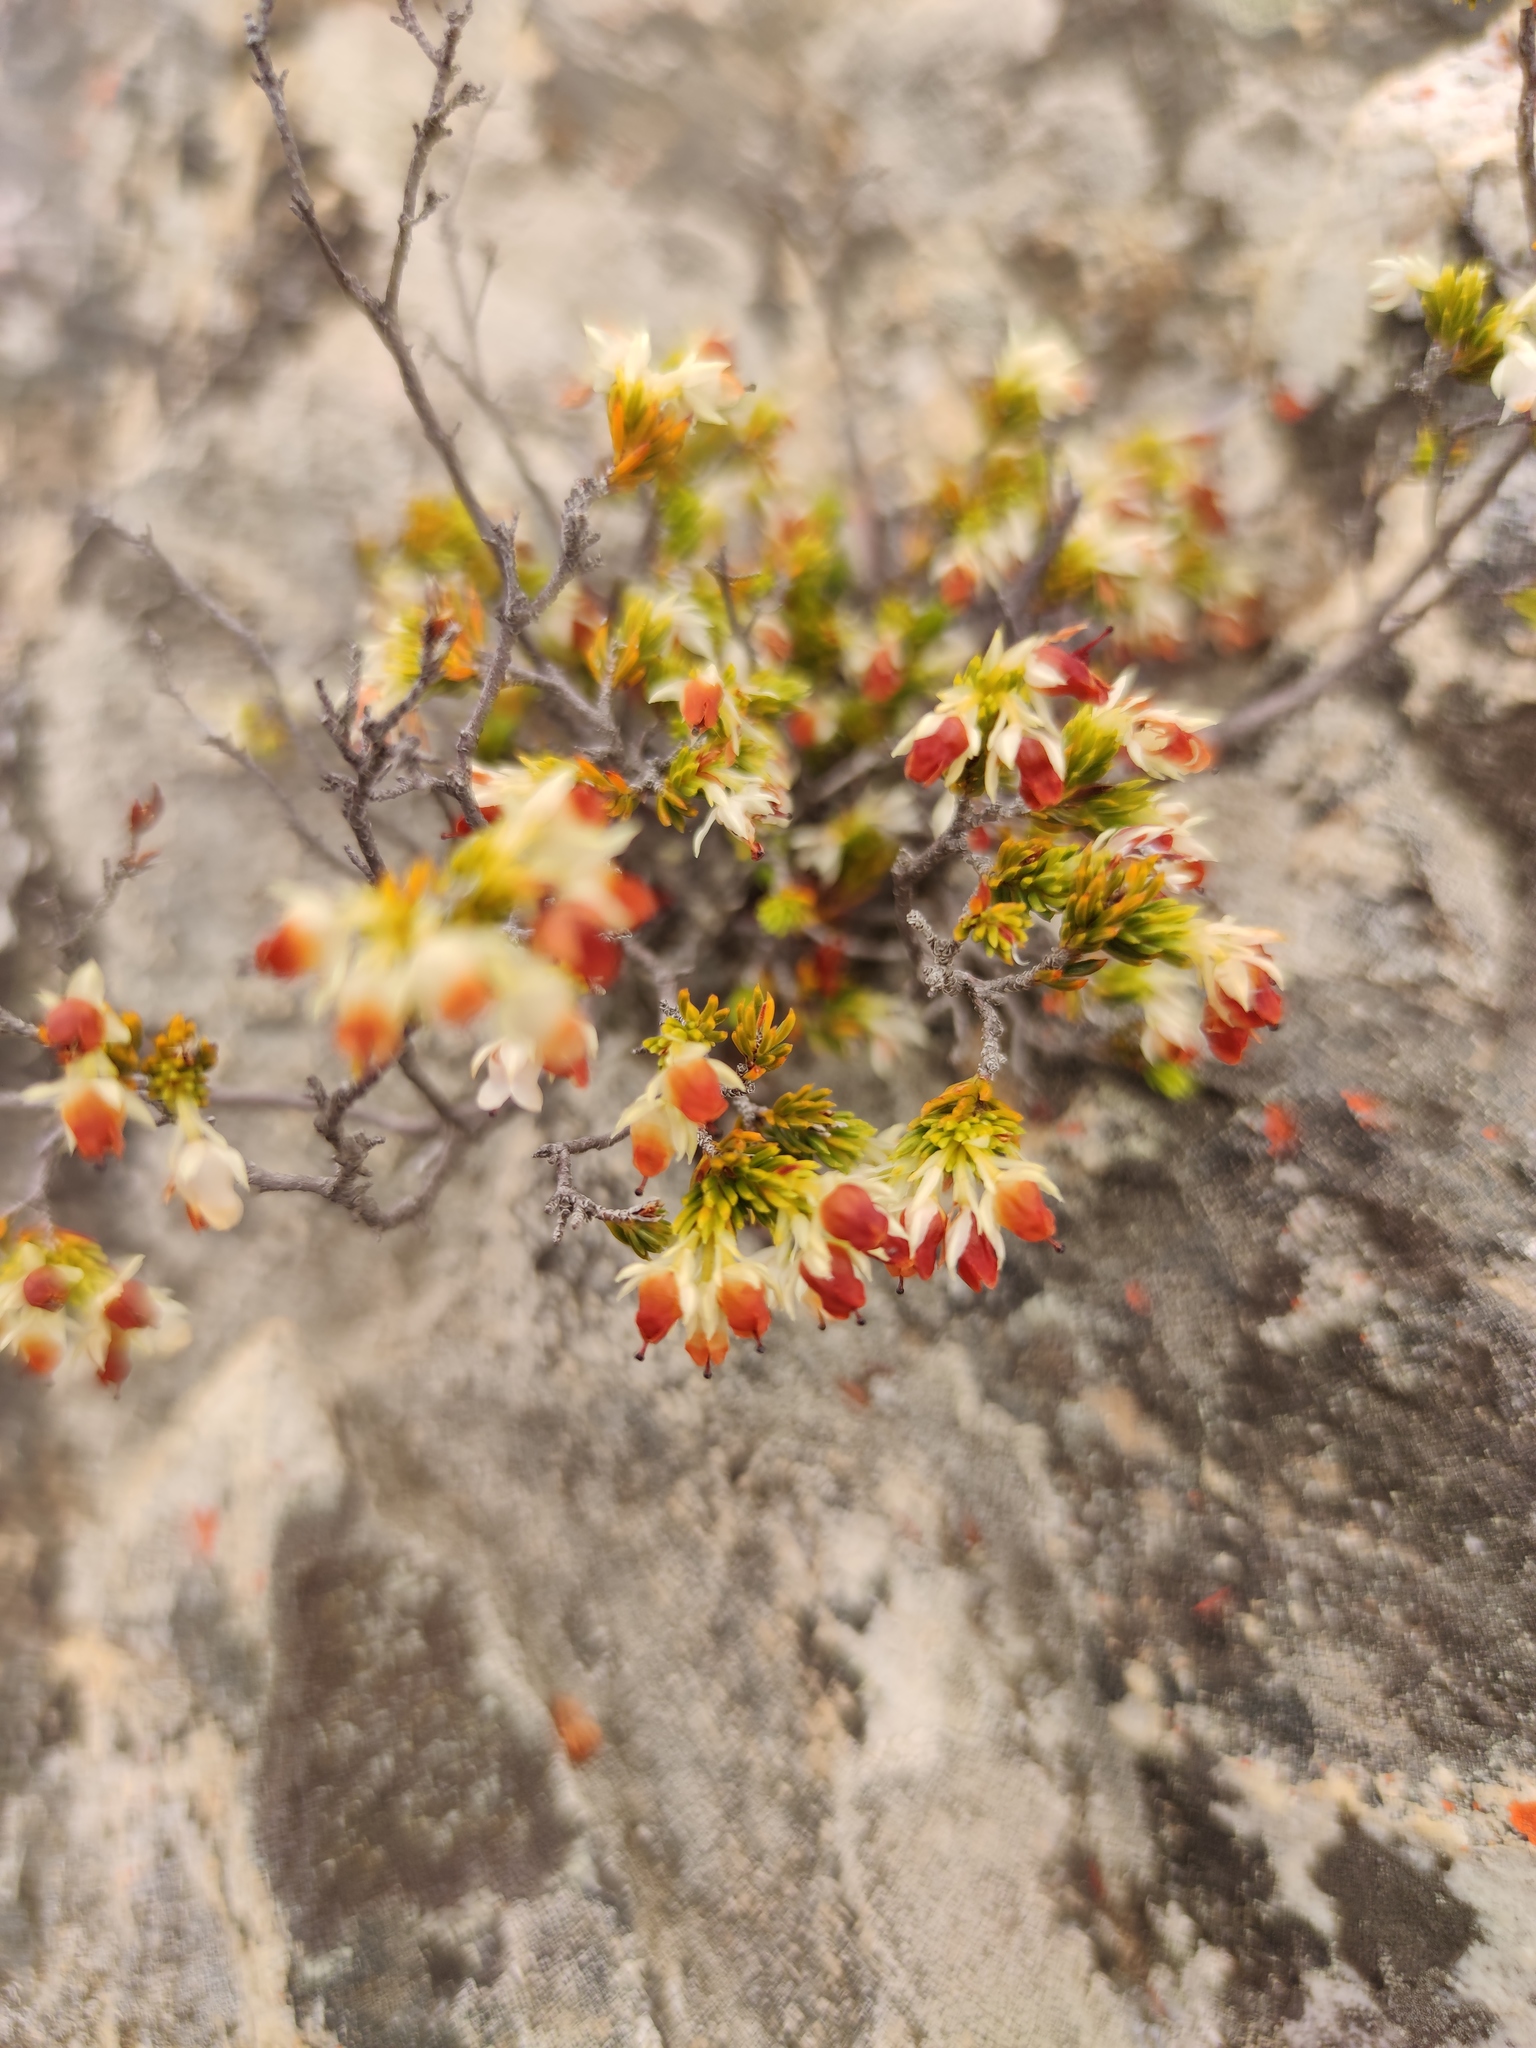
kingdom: Plantae
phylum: Tracheophyta
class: Magnoliopsida
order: Ericales
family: Ericaceae
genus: Erica
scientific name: Erica navigatoris
